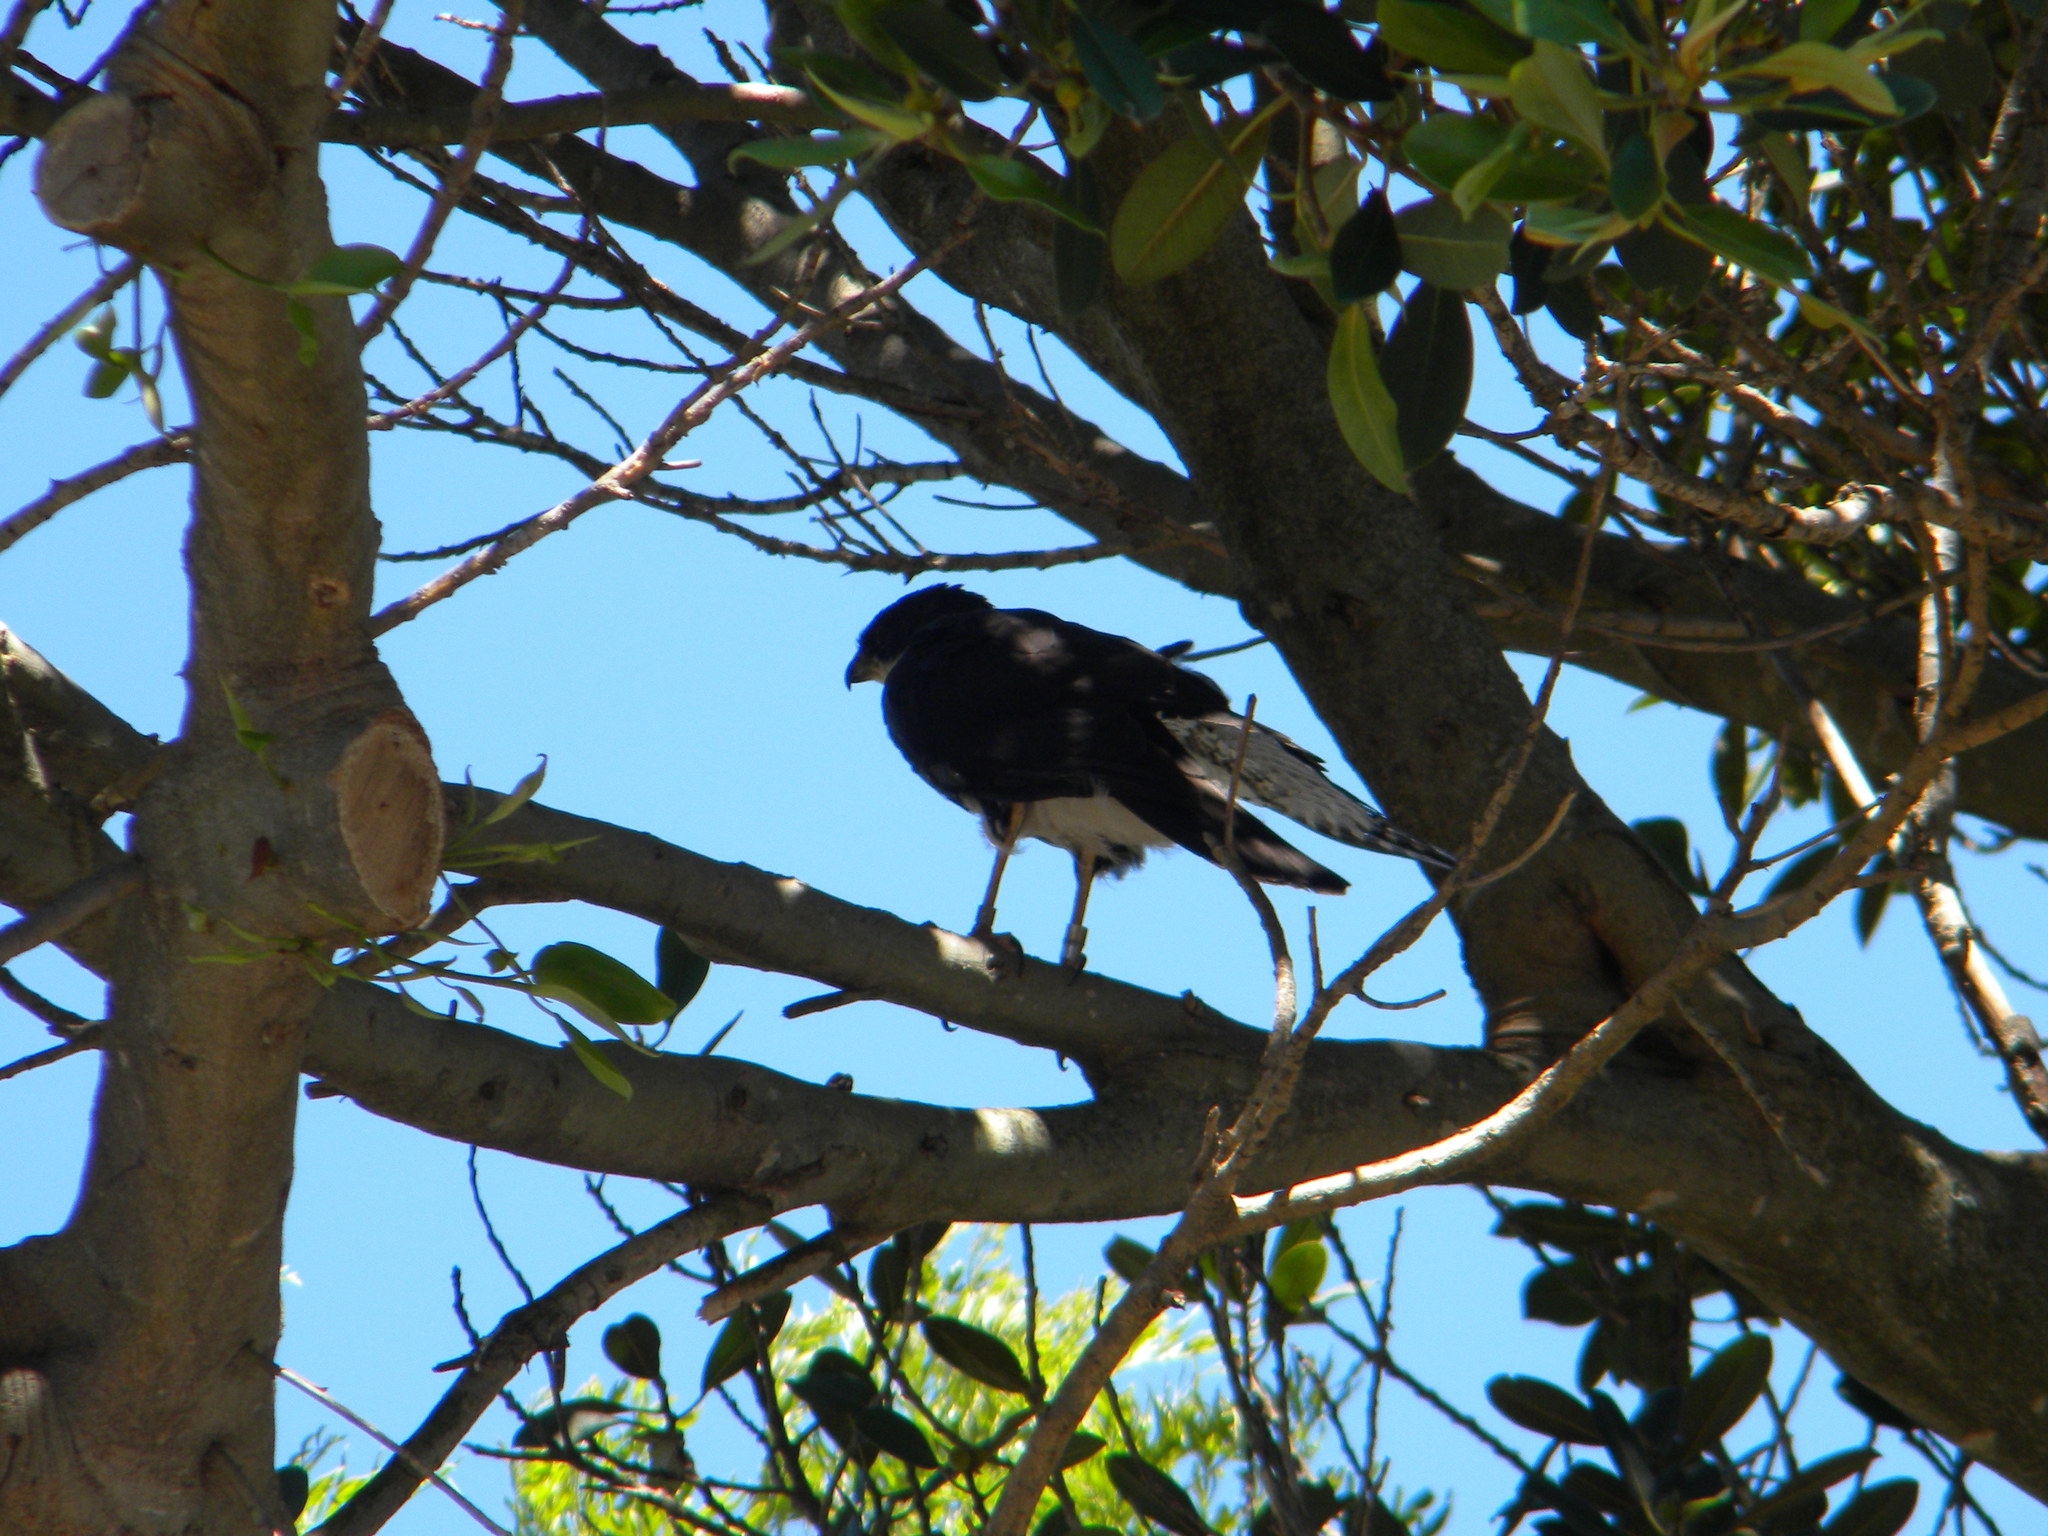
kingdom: Animalia
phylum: Chordata
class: Aves
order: Accipitriformes
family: Accipitridae
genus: Accipiter
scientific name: Accipiter melanoleucus
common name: Black sparrowhawk
